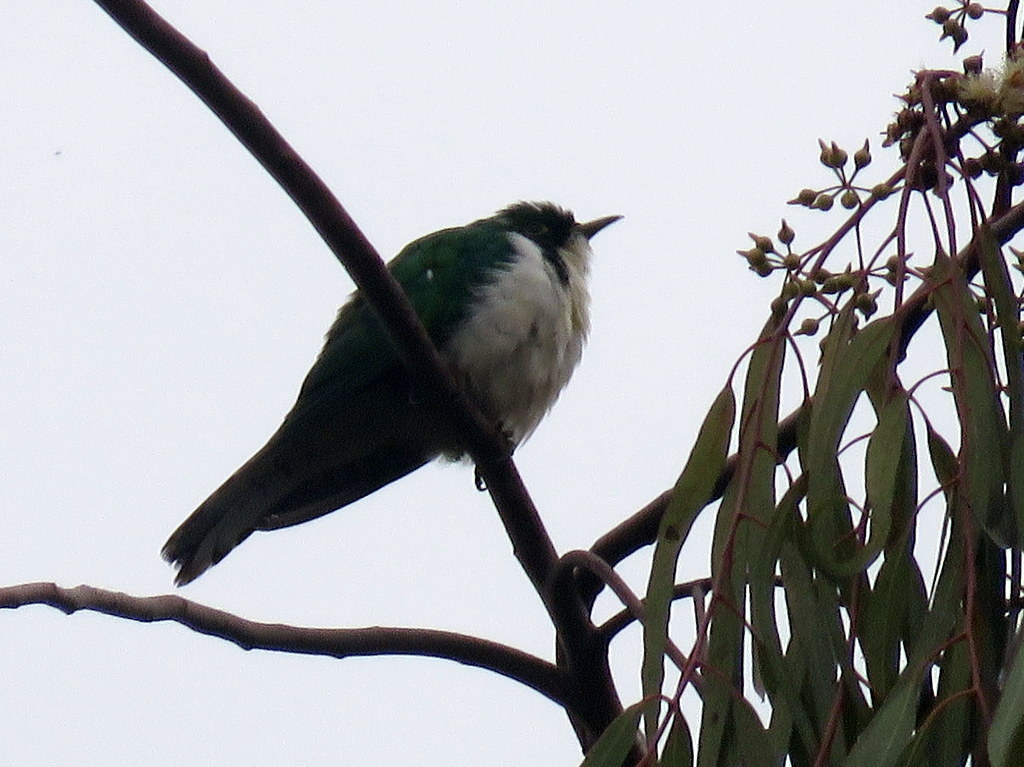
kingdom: Animalia
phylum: Chordata
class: Aves
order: Cuculiformes
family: Cuculidae
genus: Chrysococcyx
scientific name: Chrysococcyx klaas
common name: Klaas's cuckoo
